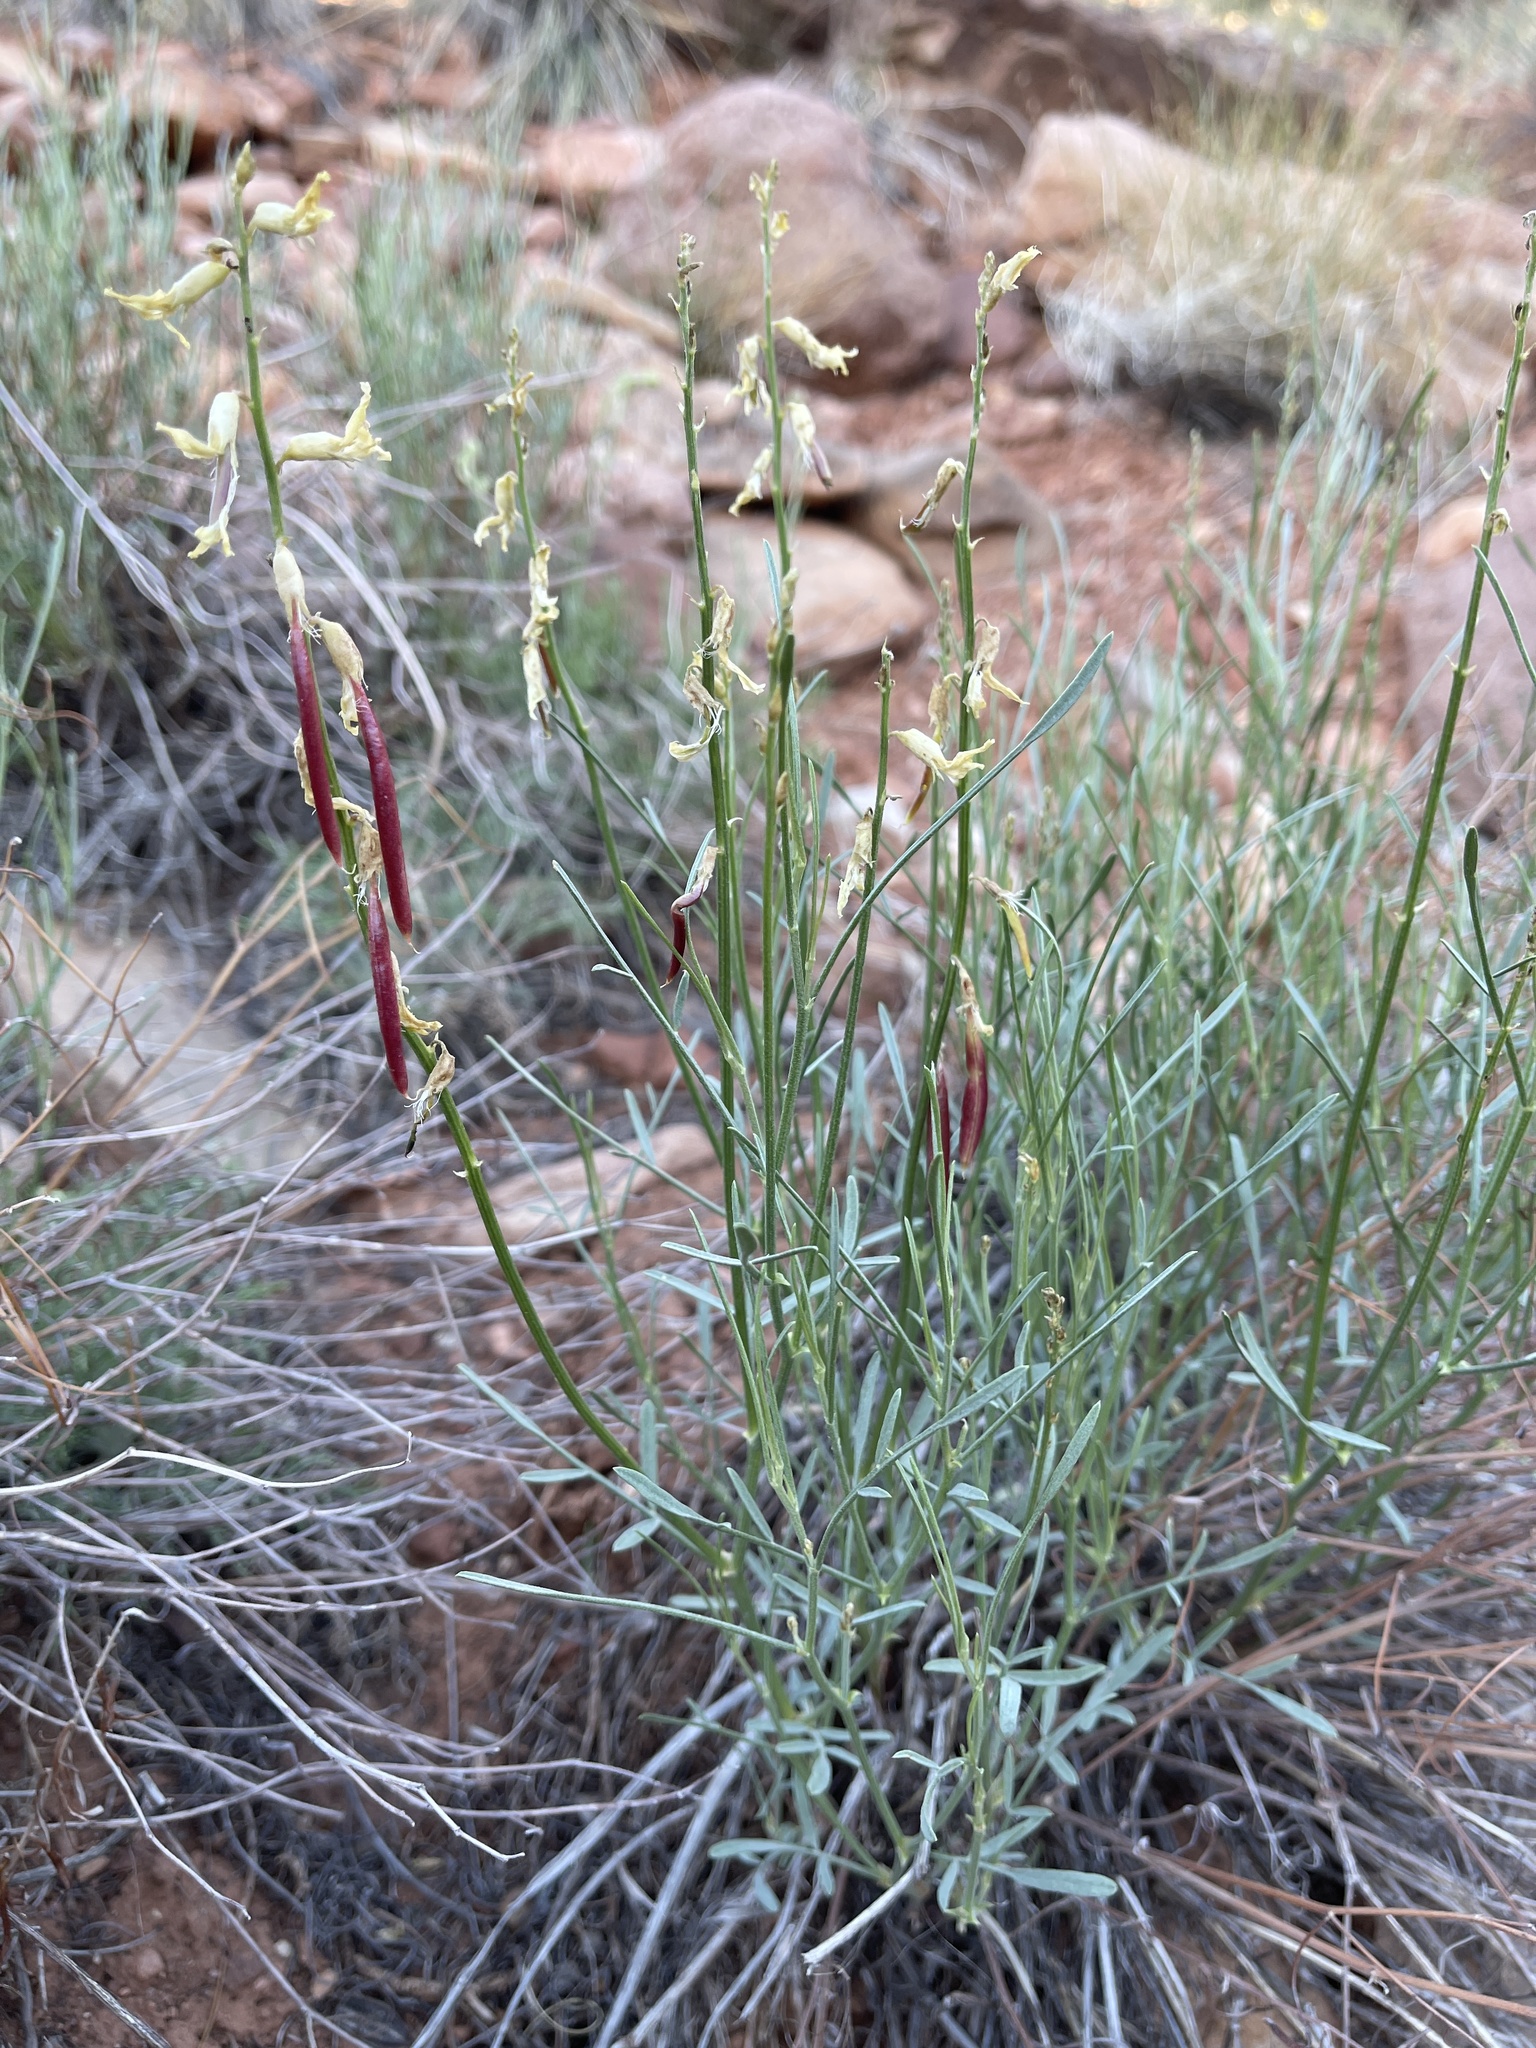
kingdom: Plantae
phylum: Tracheophyta
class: Magnoliopsida
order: Fabales
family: Fabaceae
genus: Astragalus
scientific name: Astragalus lonchocarpus
